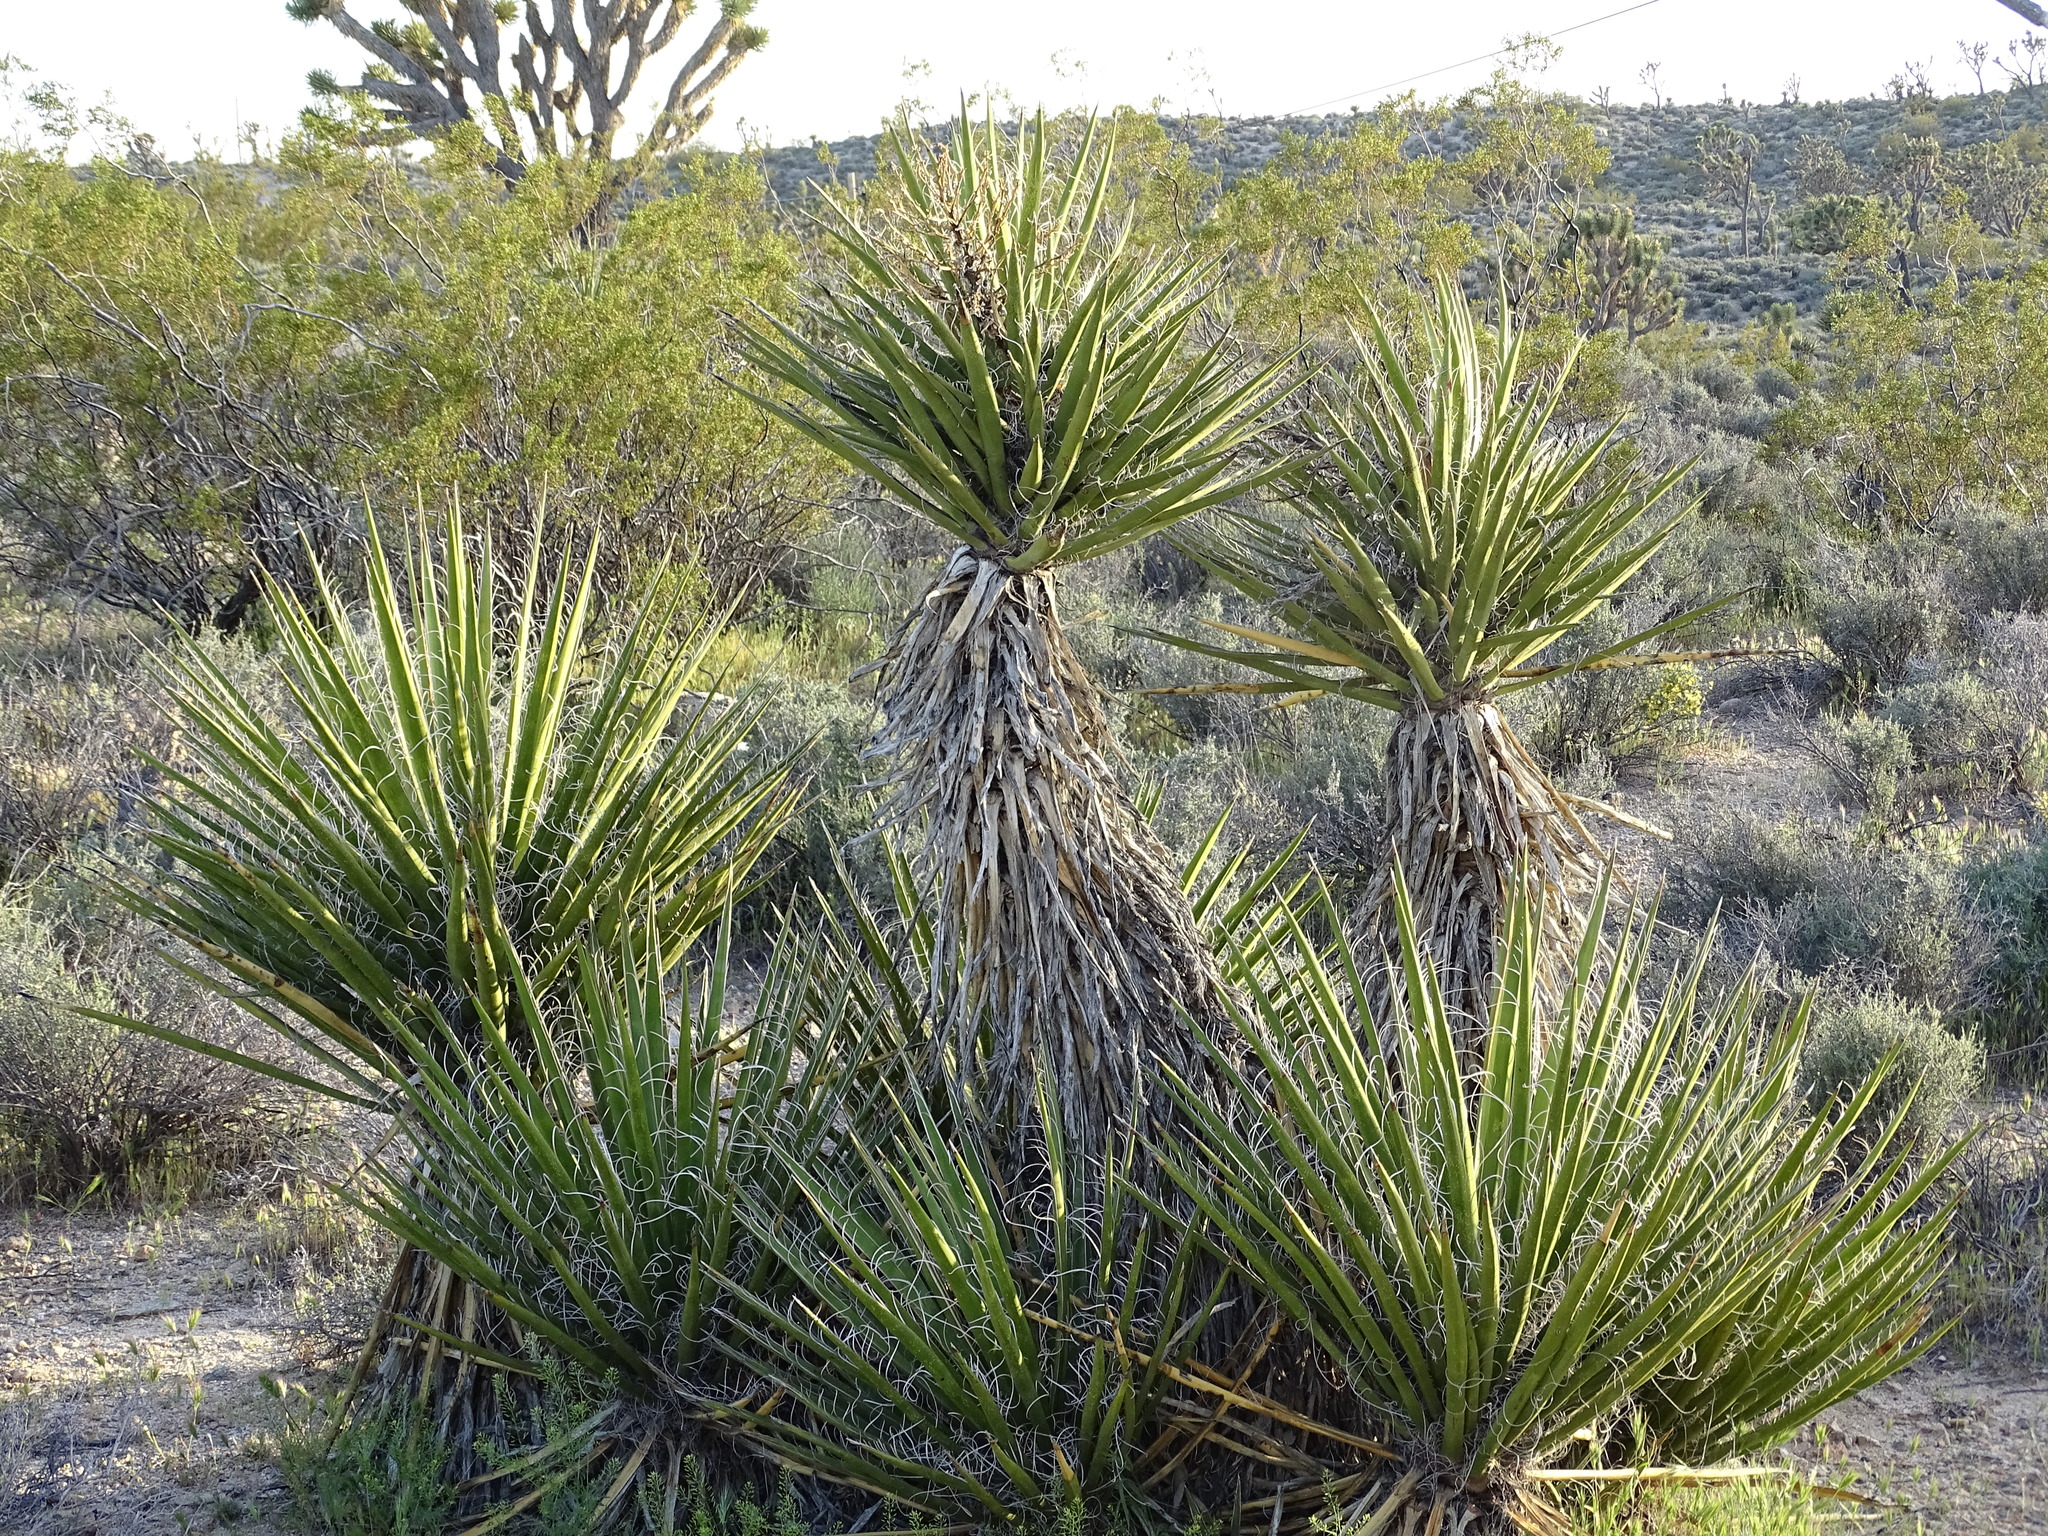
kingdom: Plantae
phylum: Tracheophyta
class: Liliopsida
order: Asparagales
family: Asparagaceae
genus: Yucca
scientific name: Yucca schidigera
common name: Mojave yucca
